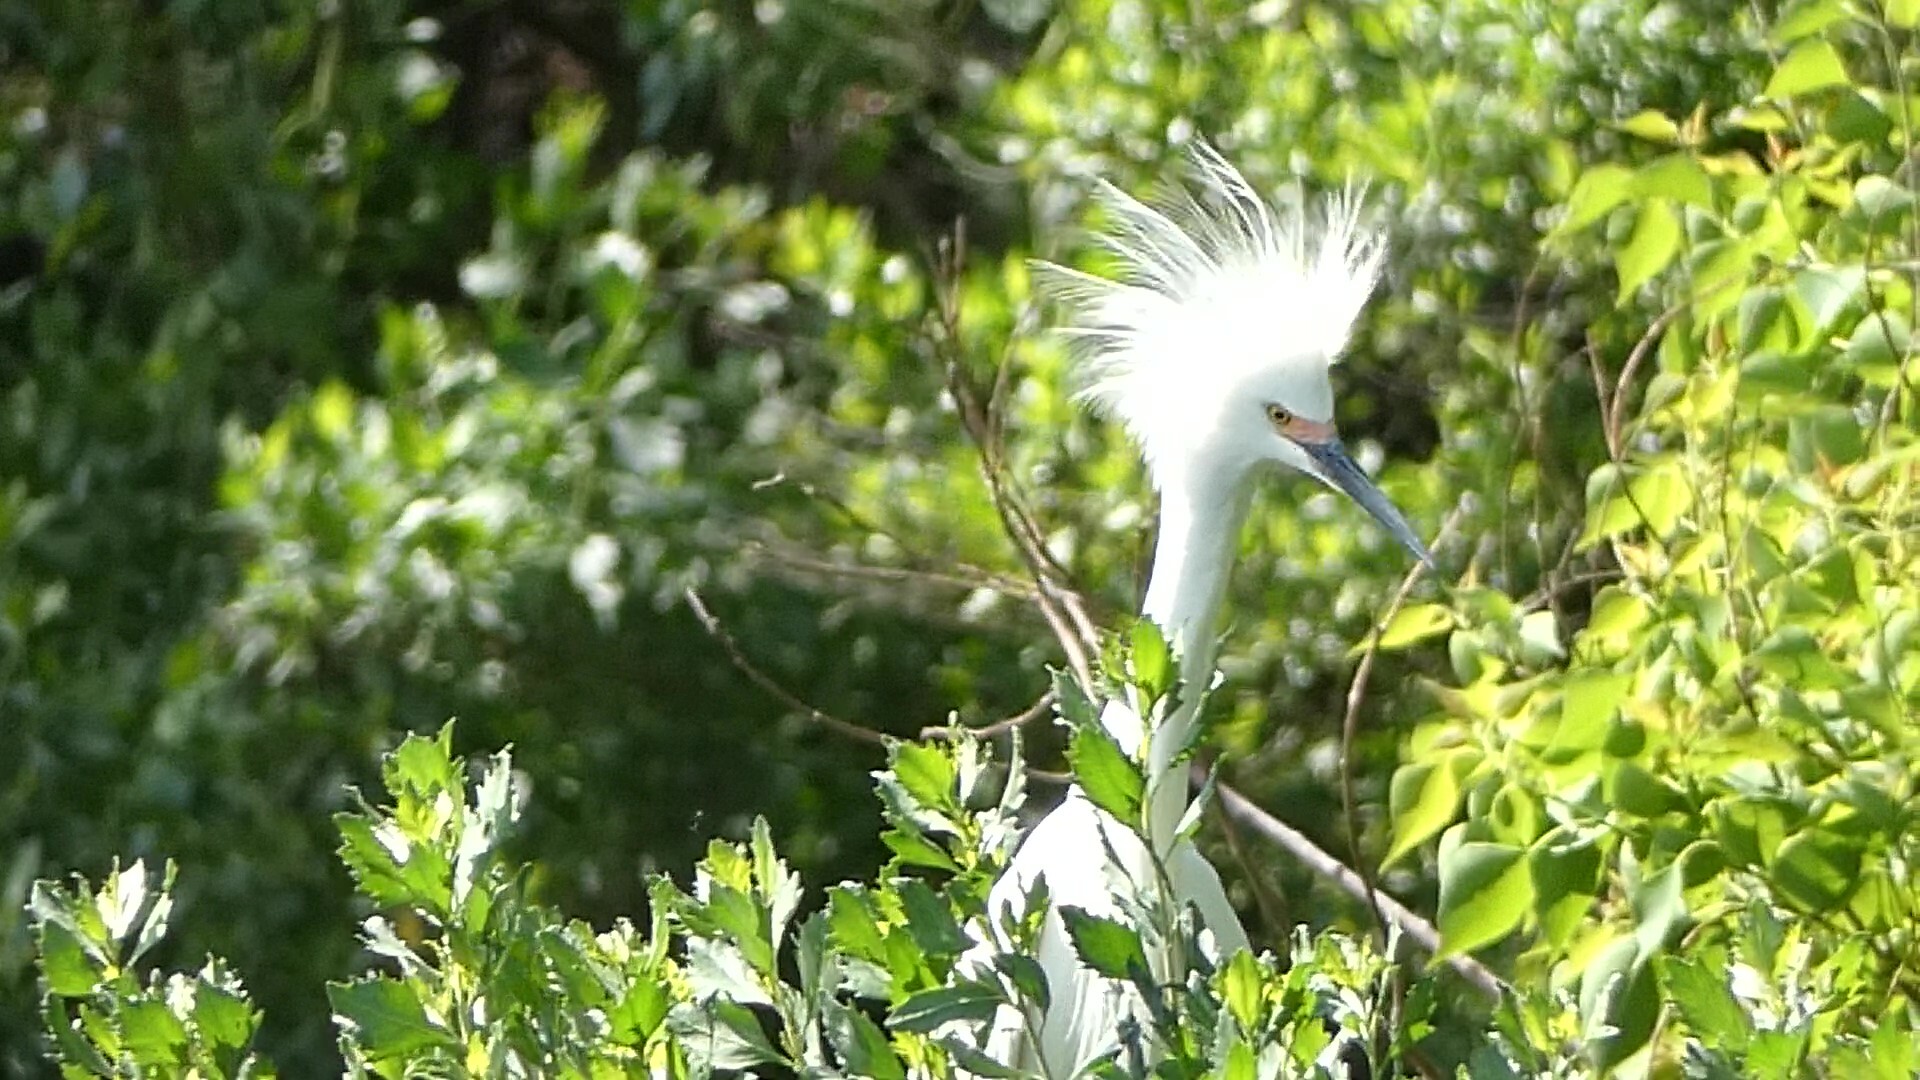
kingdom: Animalia
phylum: Chordata
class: Aves
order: Pelecaniformes
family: Ardeidae
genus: Egretta
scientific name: Egretta thula
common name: Snowy egret
